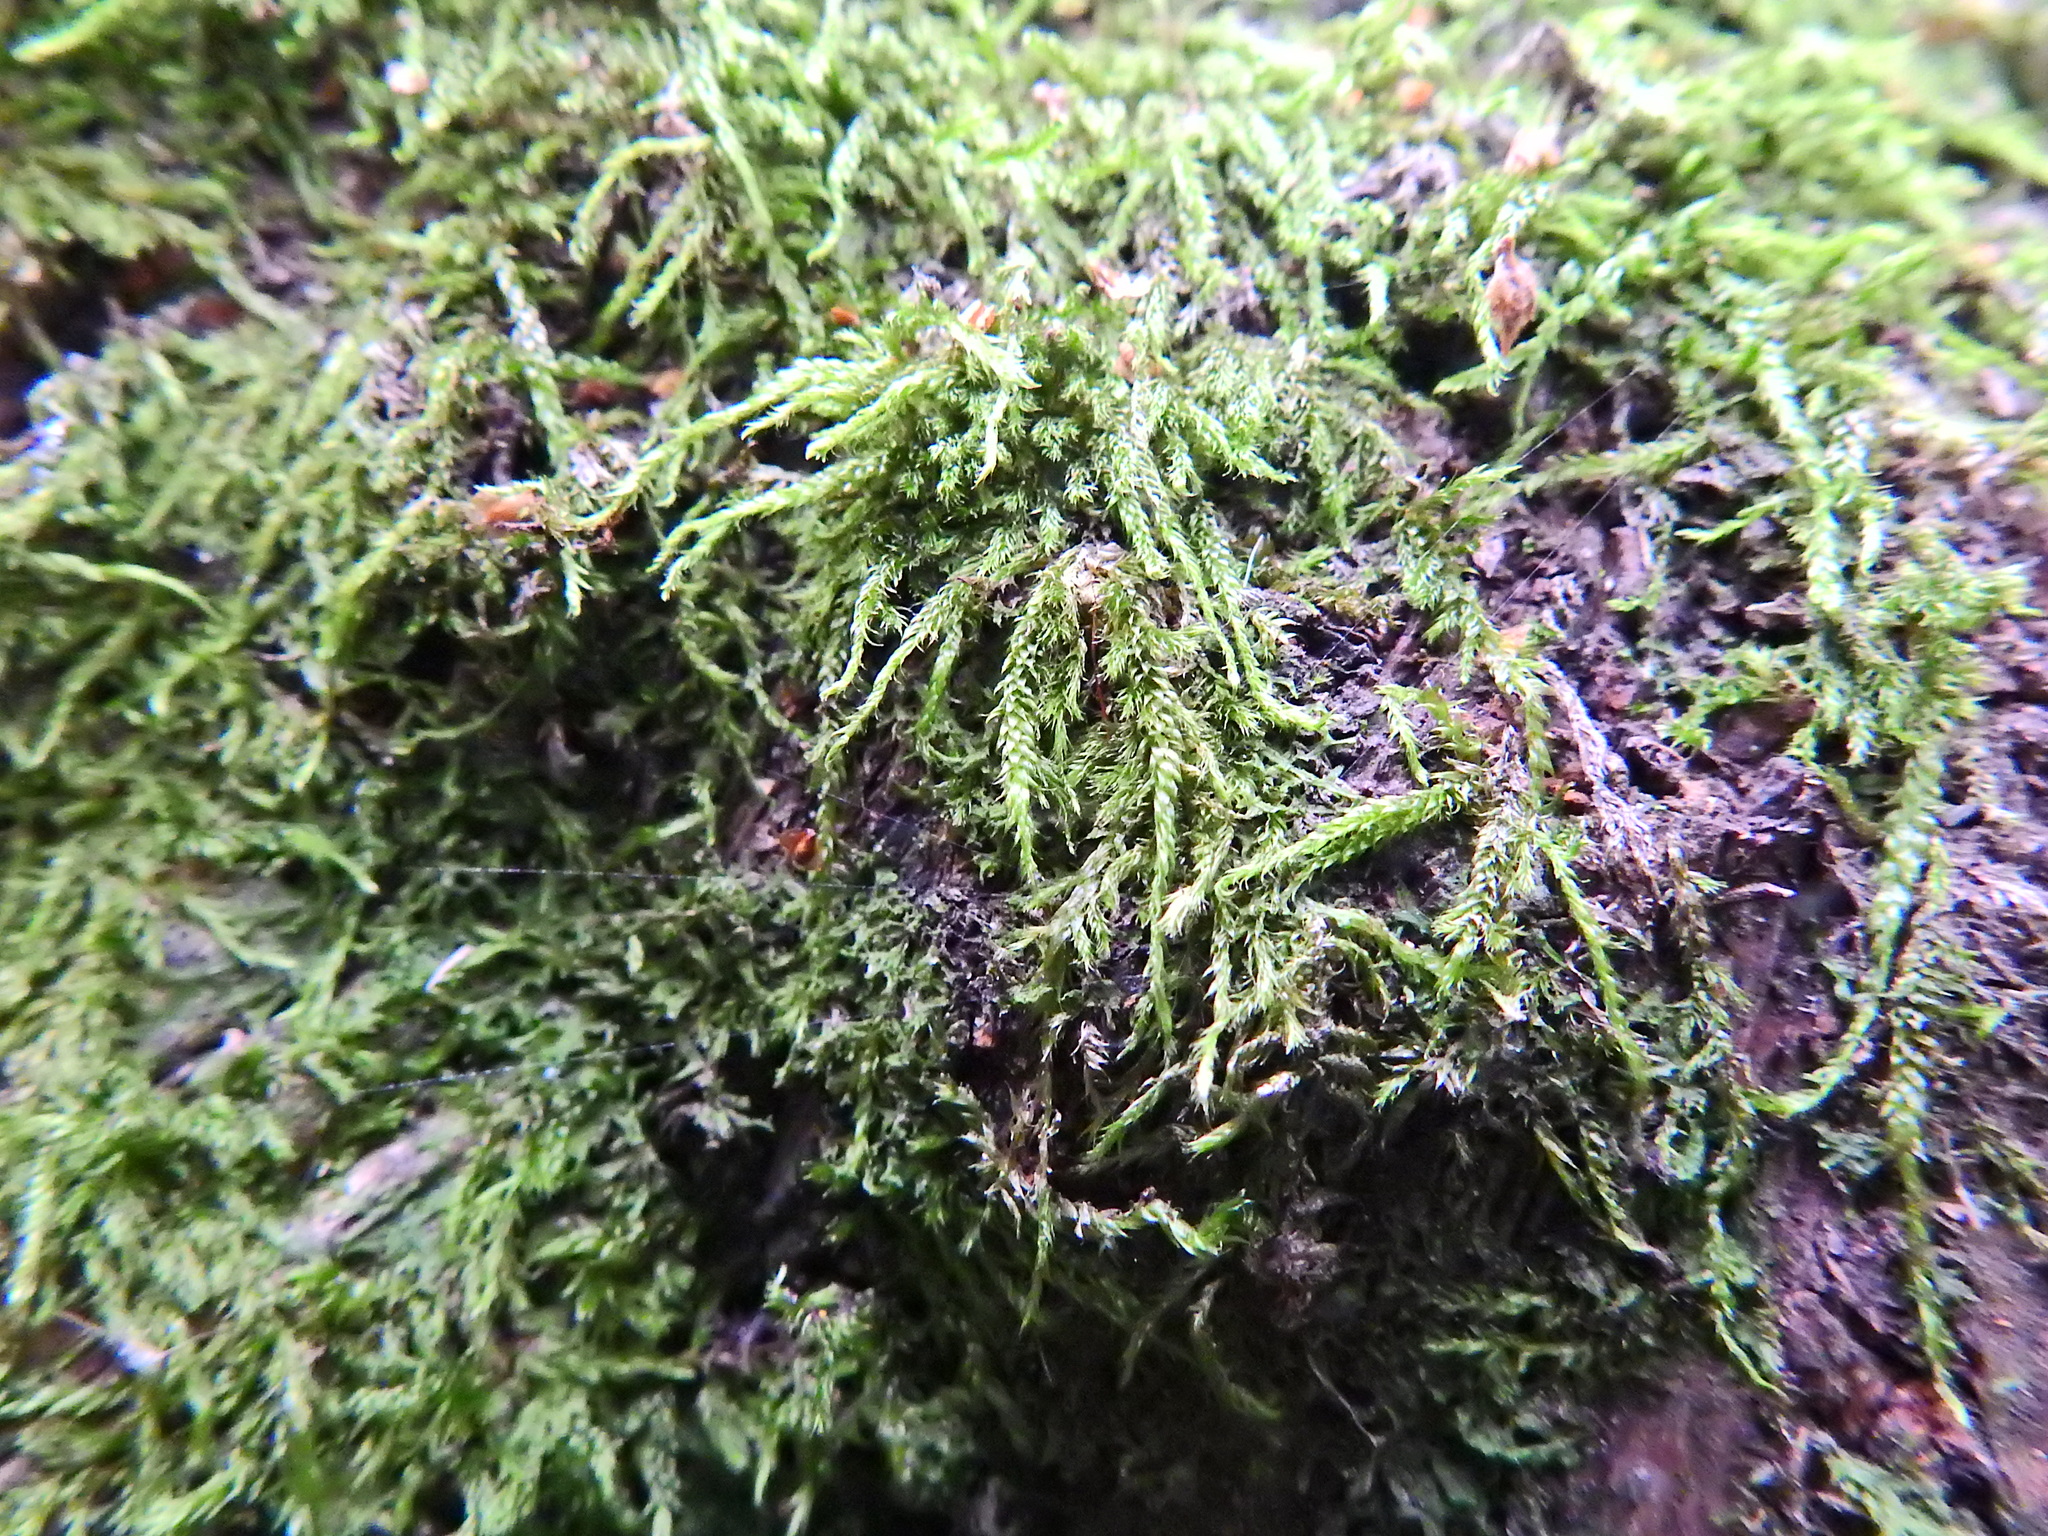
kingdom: Plantae
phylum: Bryophyta
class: Bryopsida
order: Hypnales
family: Hypnaceae
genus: Hypnum
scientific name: Hypnum cupressiforme
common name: Cypress-leaved plait-moss
